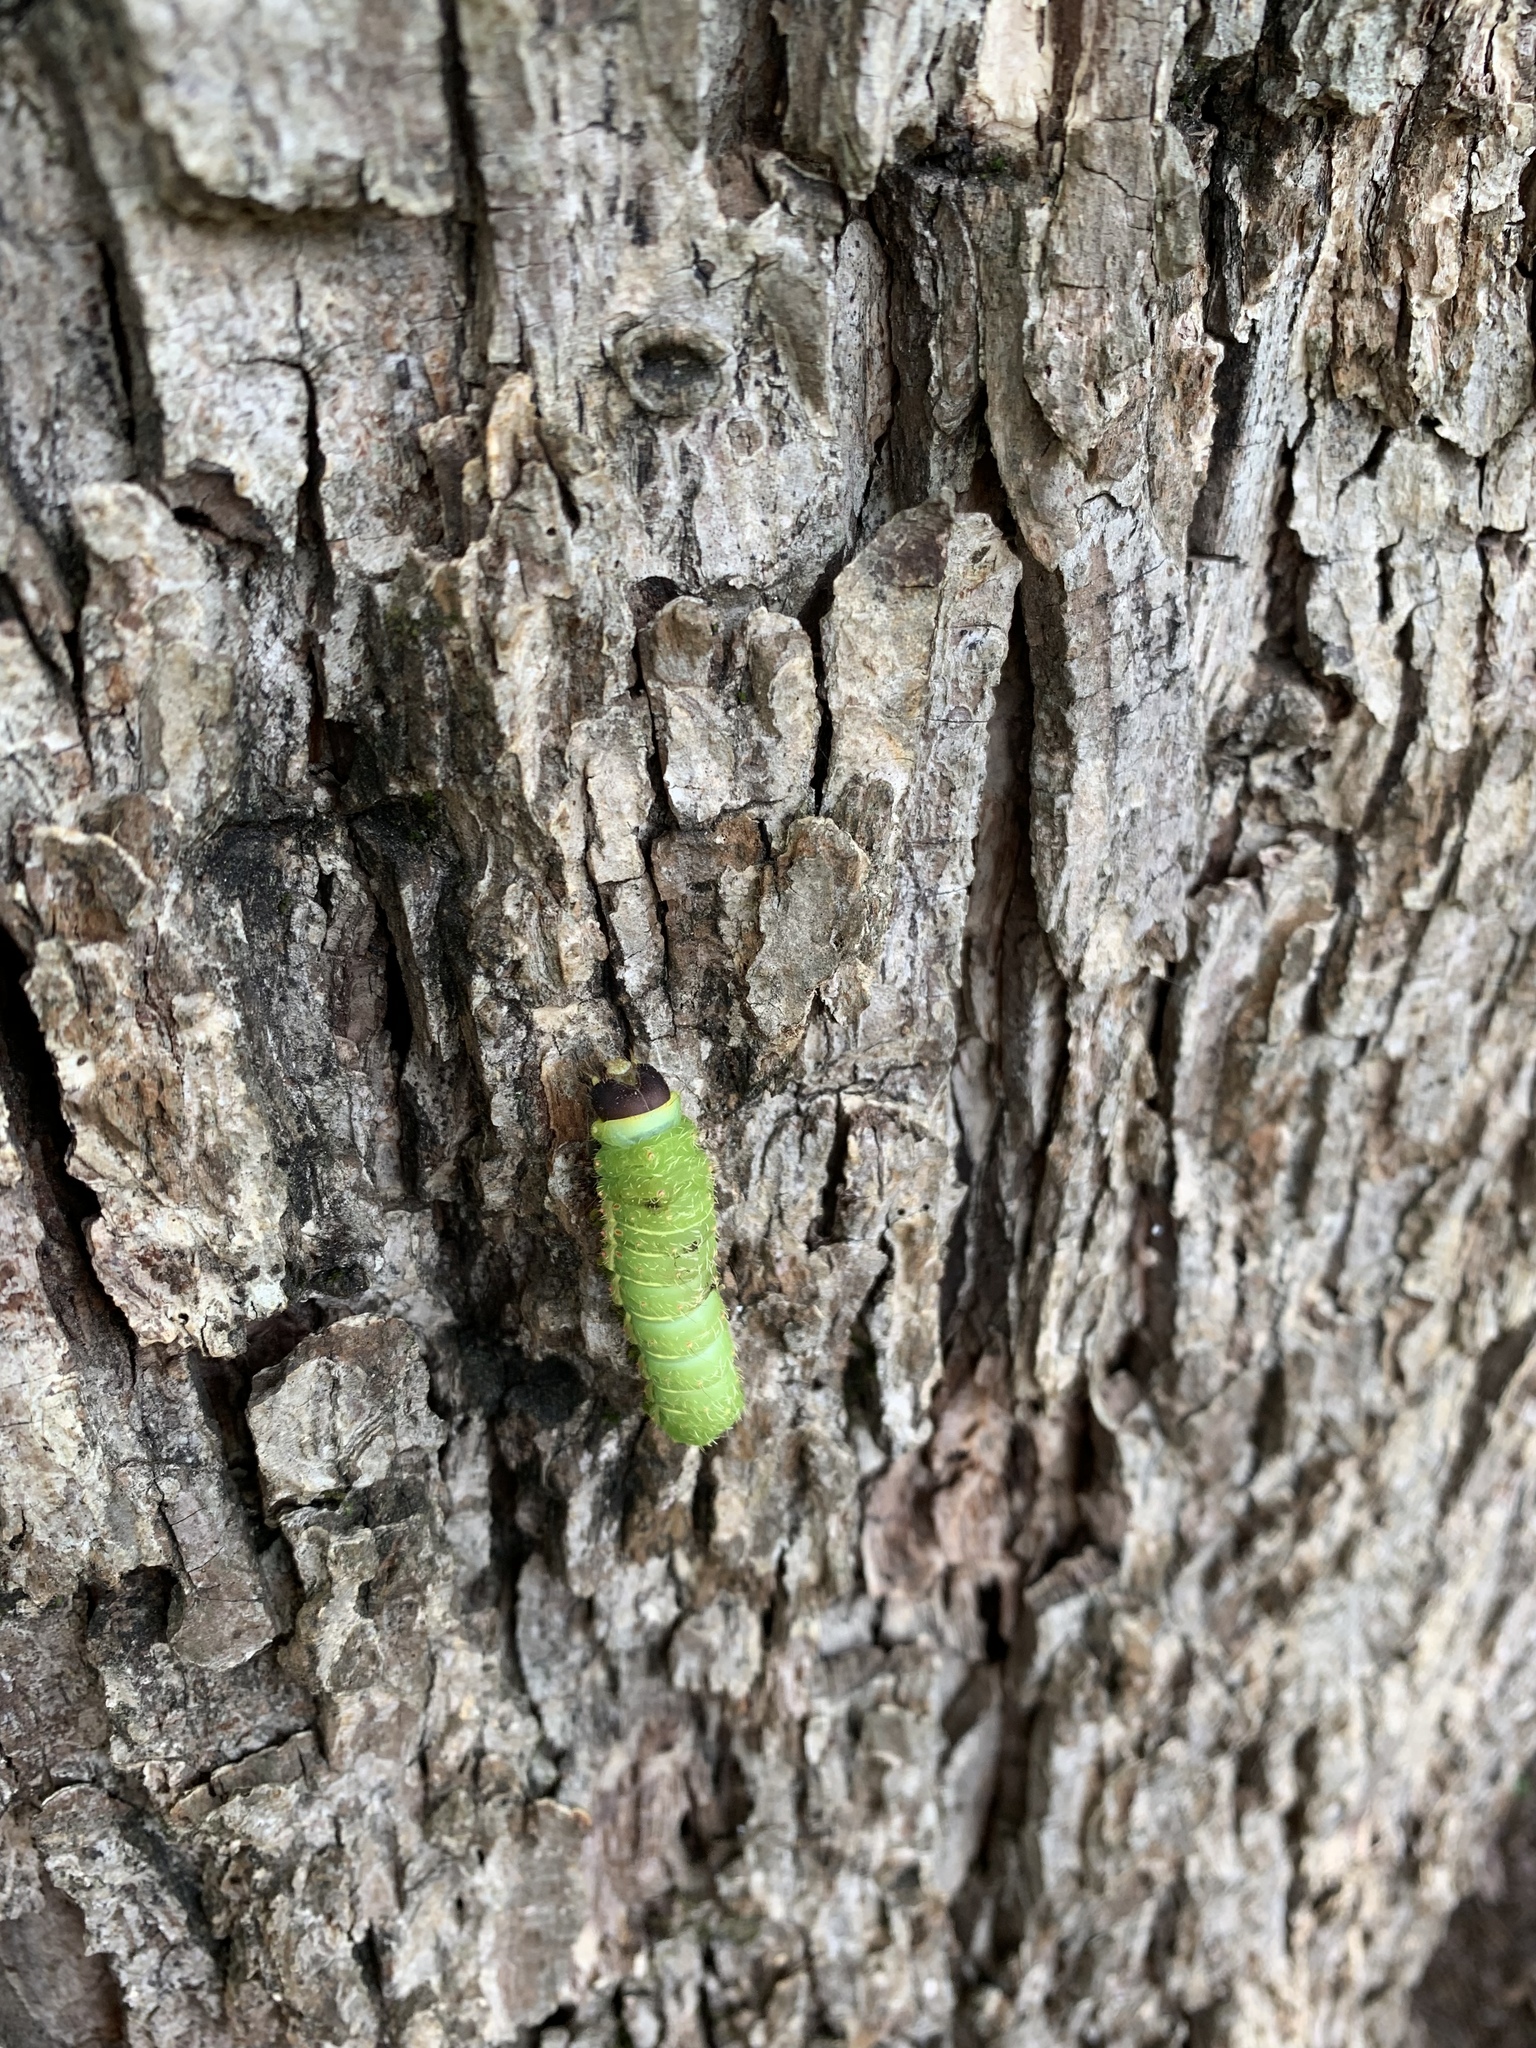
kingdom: Animalia
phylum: Arthropoda
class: Insecta
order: Lepidoptera
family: Saturniidae
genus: Actias
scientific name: Actias luna
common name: Luna moth
